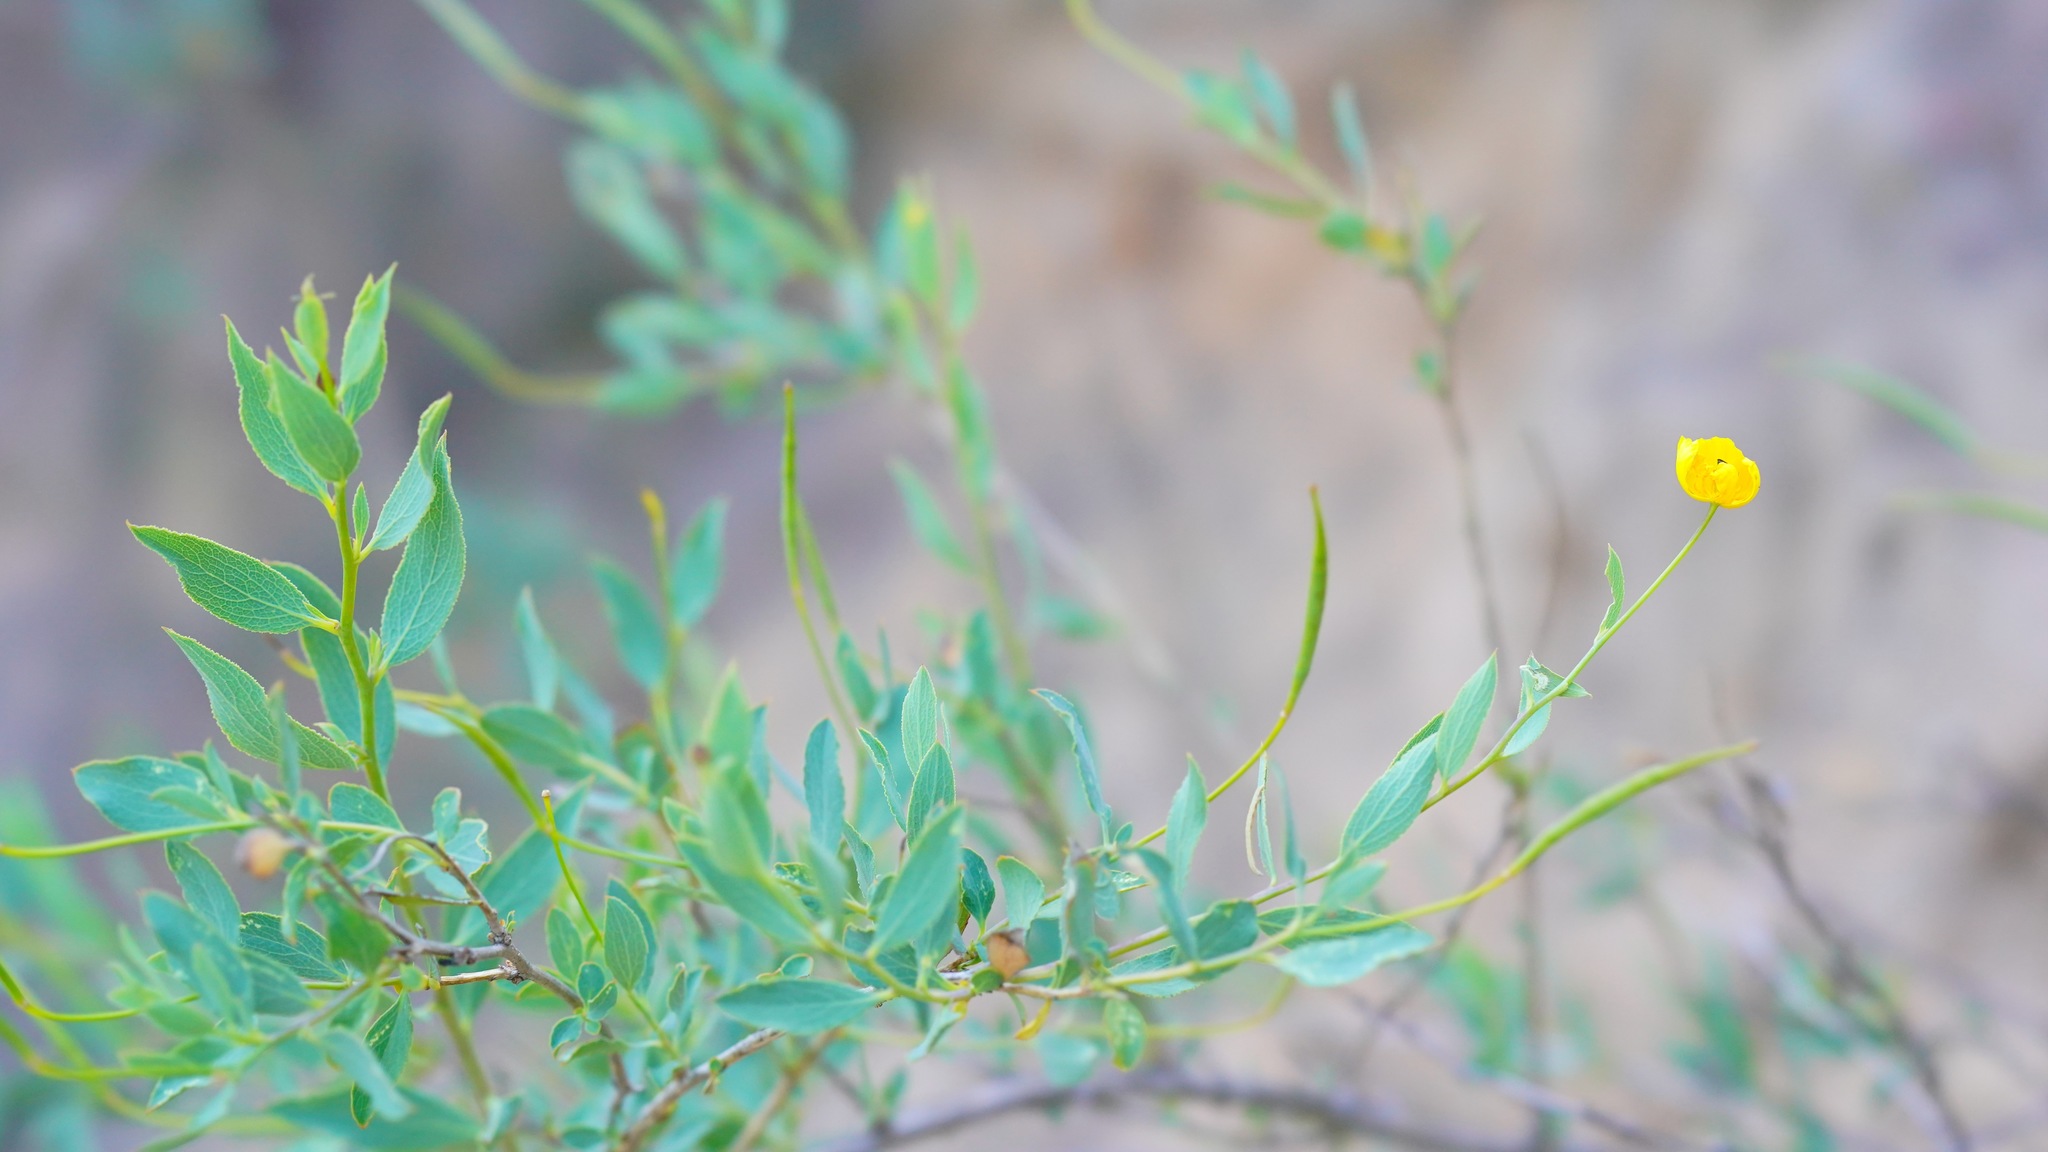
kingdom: Plantae
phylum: Tracheophyta
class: Magnoliopsida
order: Ranunculales
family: Papaveraceae
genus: Dendromecon
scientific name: Dendromecon rigida
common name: Tree poppy
